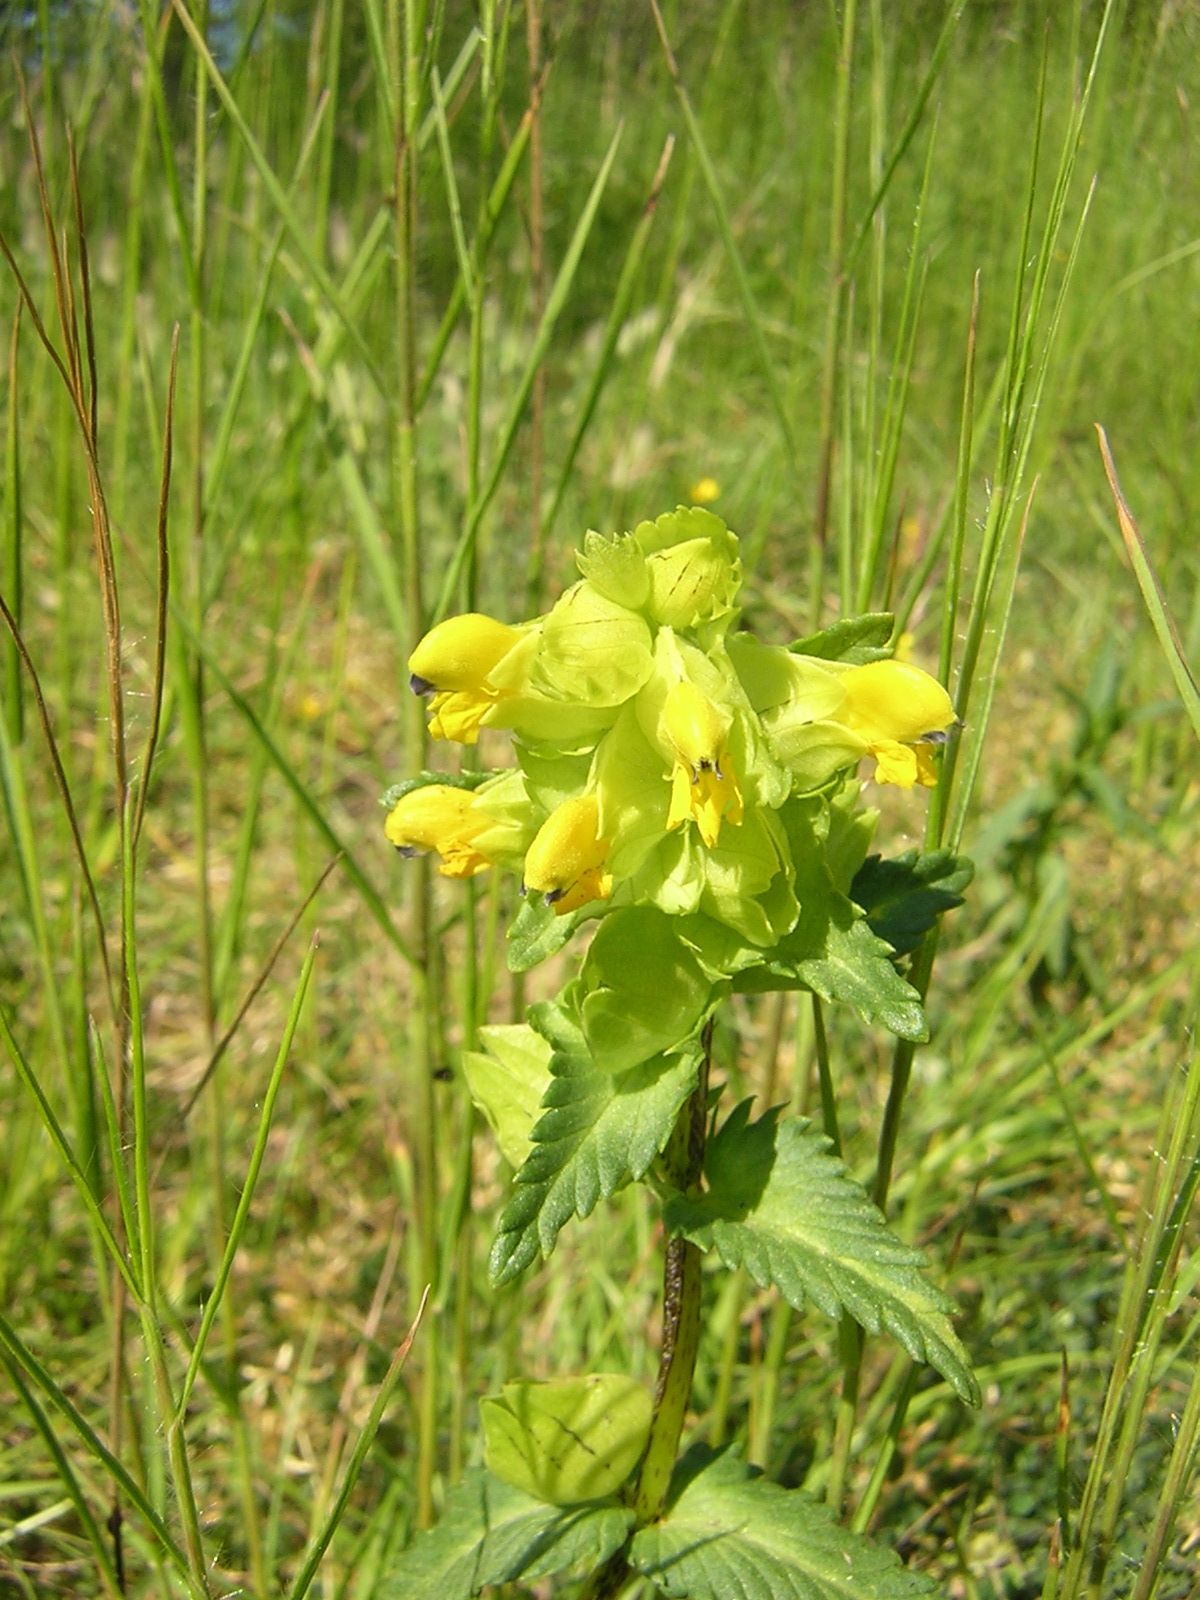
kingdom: Plantae
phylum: Tracheophyta
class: Magnoliopsida
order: Lamiales
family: Orobanchaceae
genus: Rhinanthus
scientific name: Rhinanthus minor
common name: Yellow-rattle
